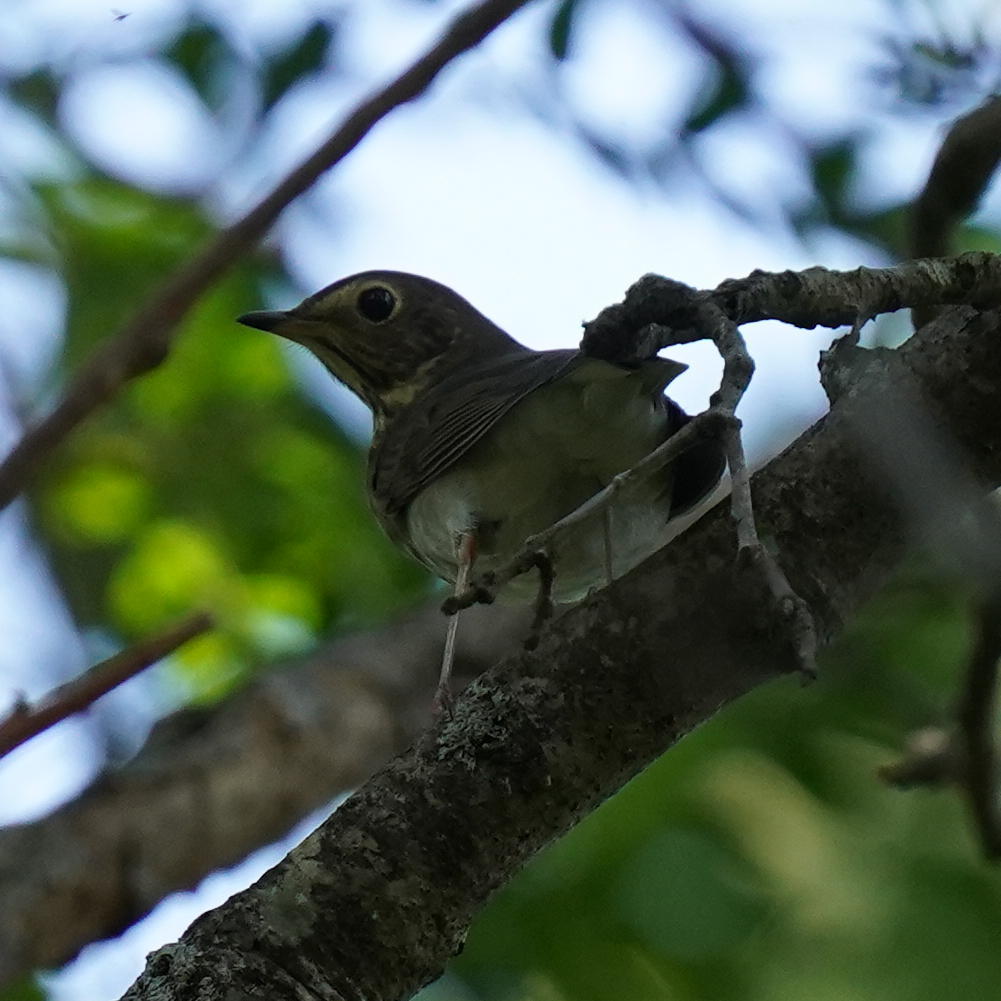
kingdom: Animalia
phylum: Chordata
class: Aves
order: Passeriformes
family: Turdidae
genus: Catharus
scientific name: Catharus ustulatus
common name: Swainson's thrush
